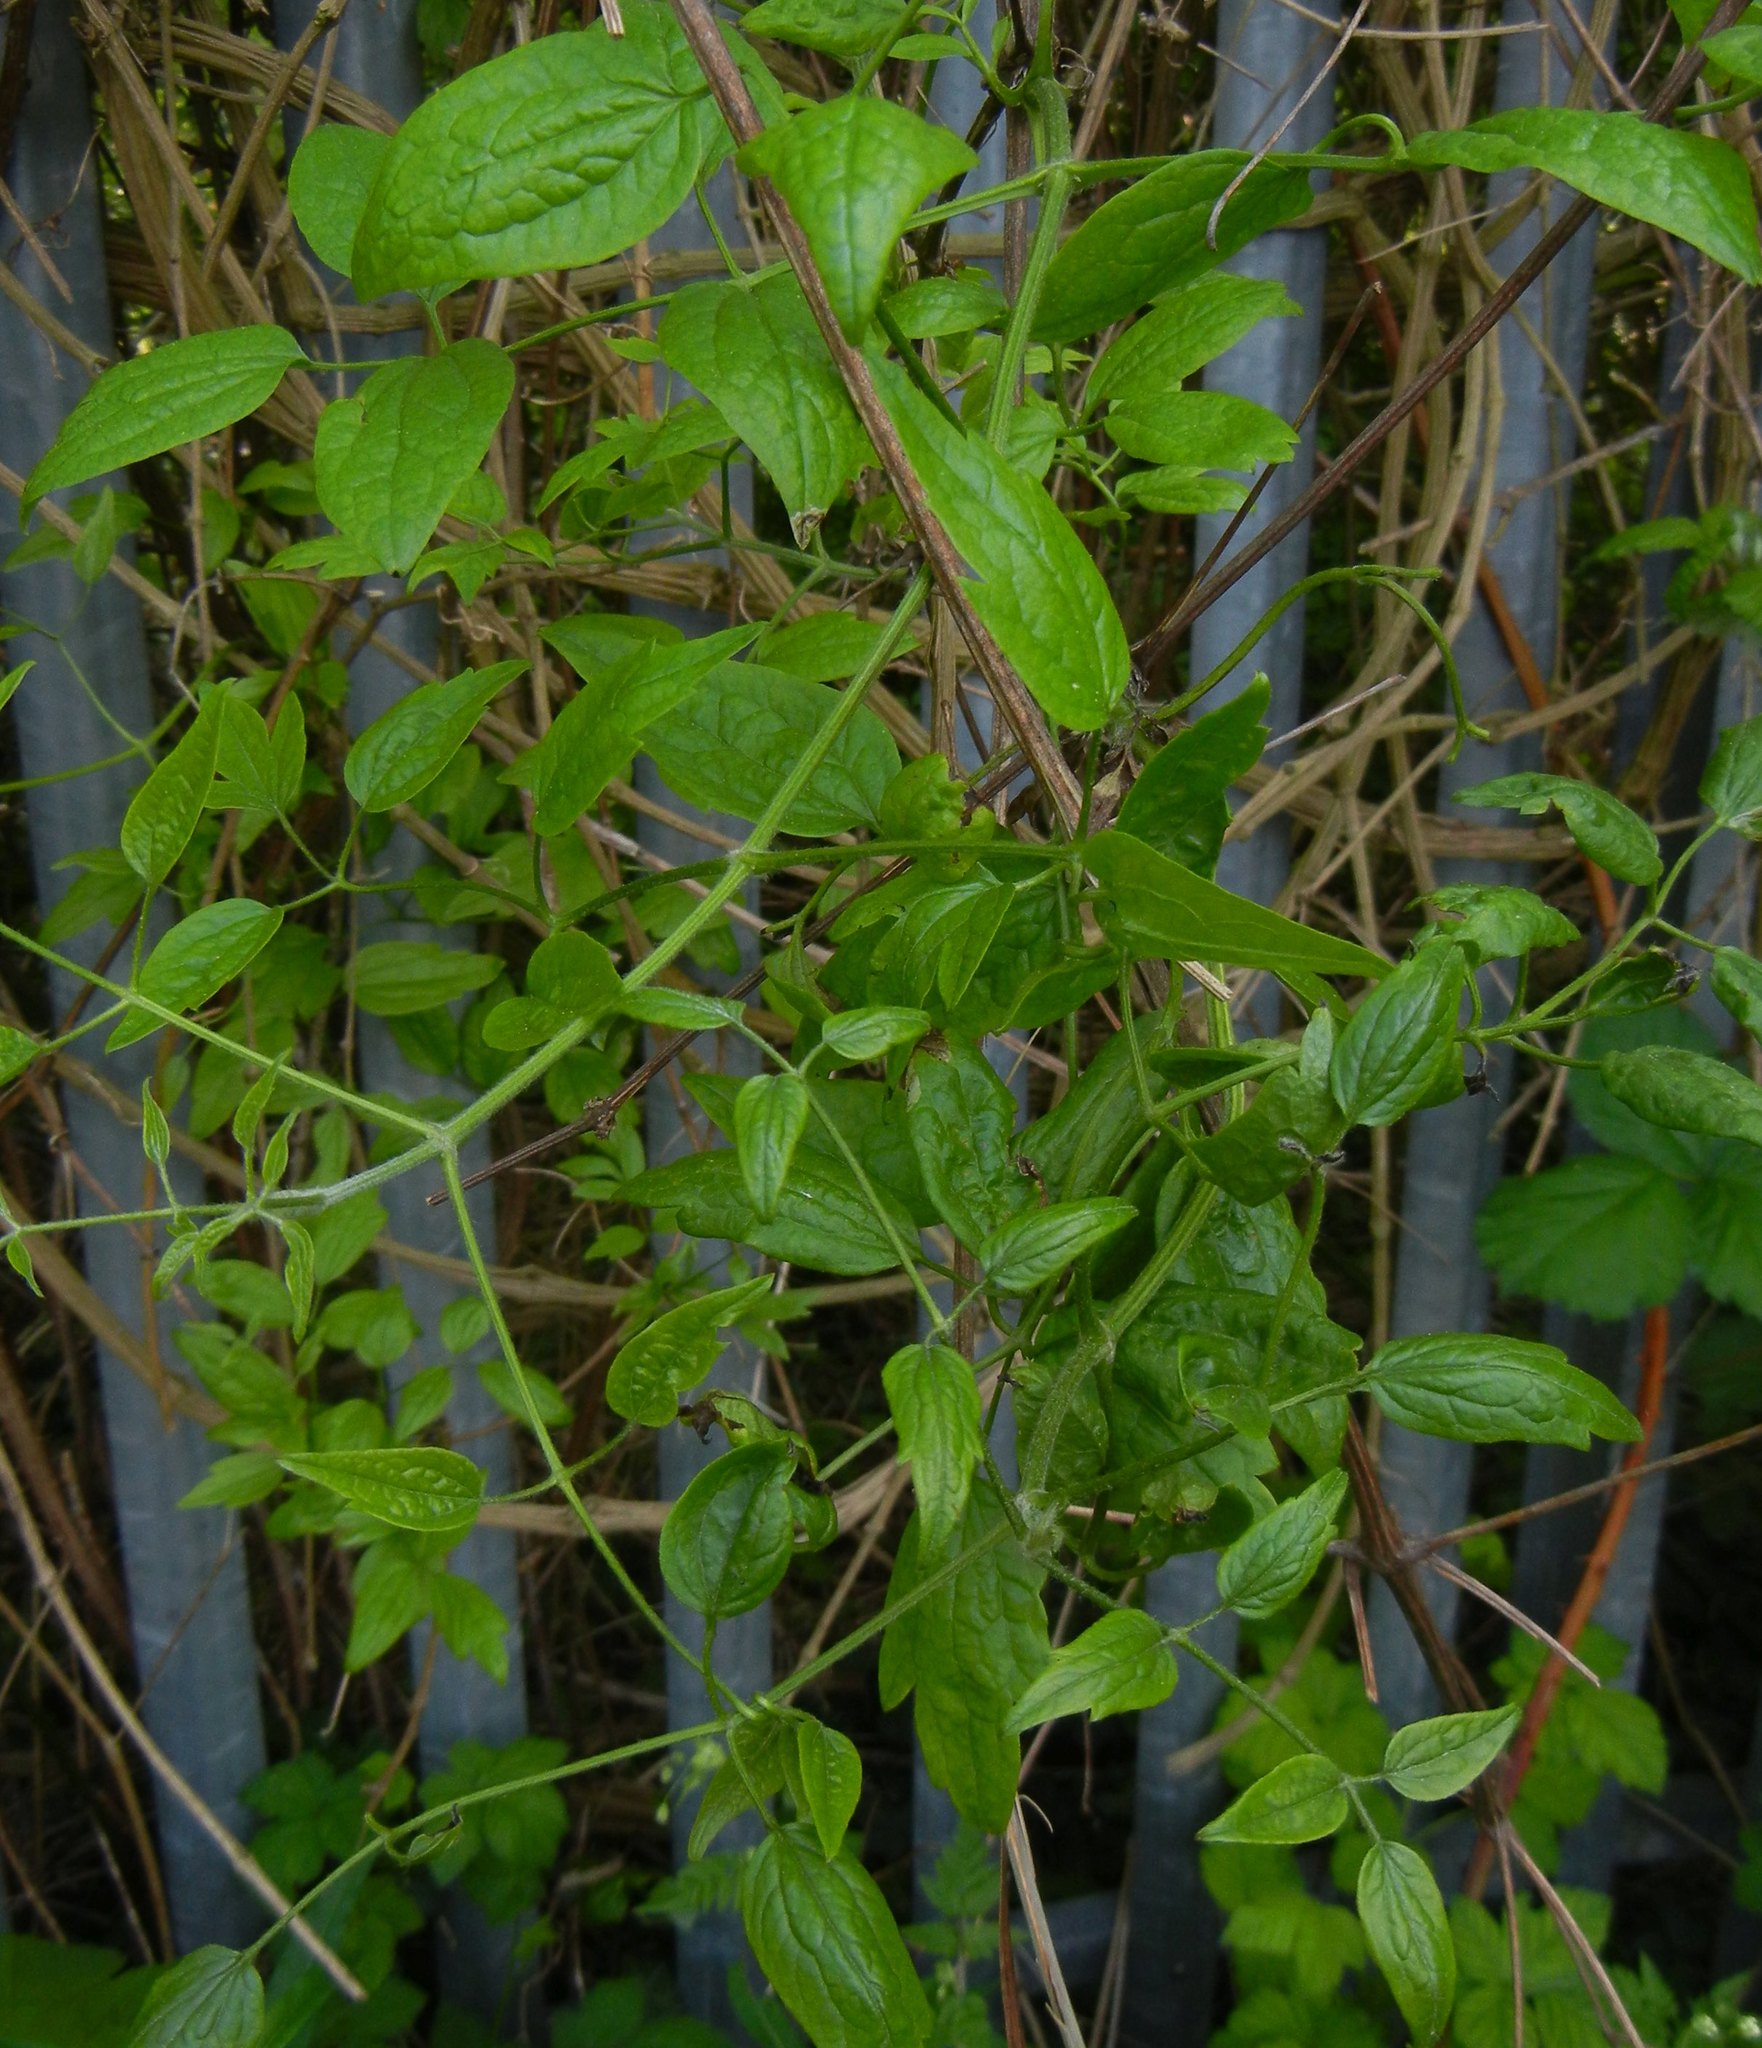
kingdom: Plantae
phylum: Tracheophyta
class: Magnoliopsida
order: Ranunculales
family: Ranunculaceae
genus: Clematis
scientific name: Clematis vitalba
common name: Evergreen clematis
